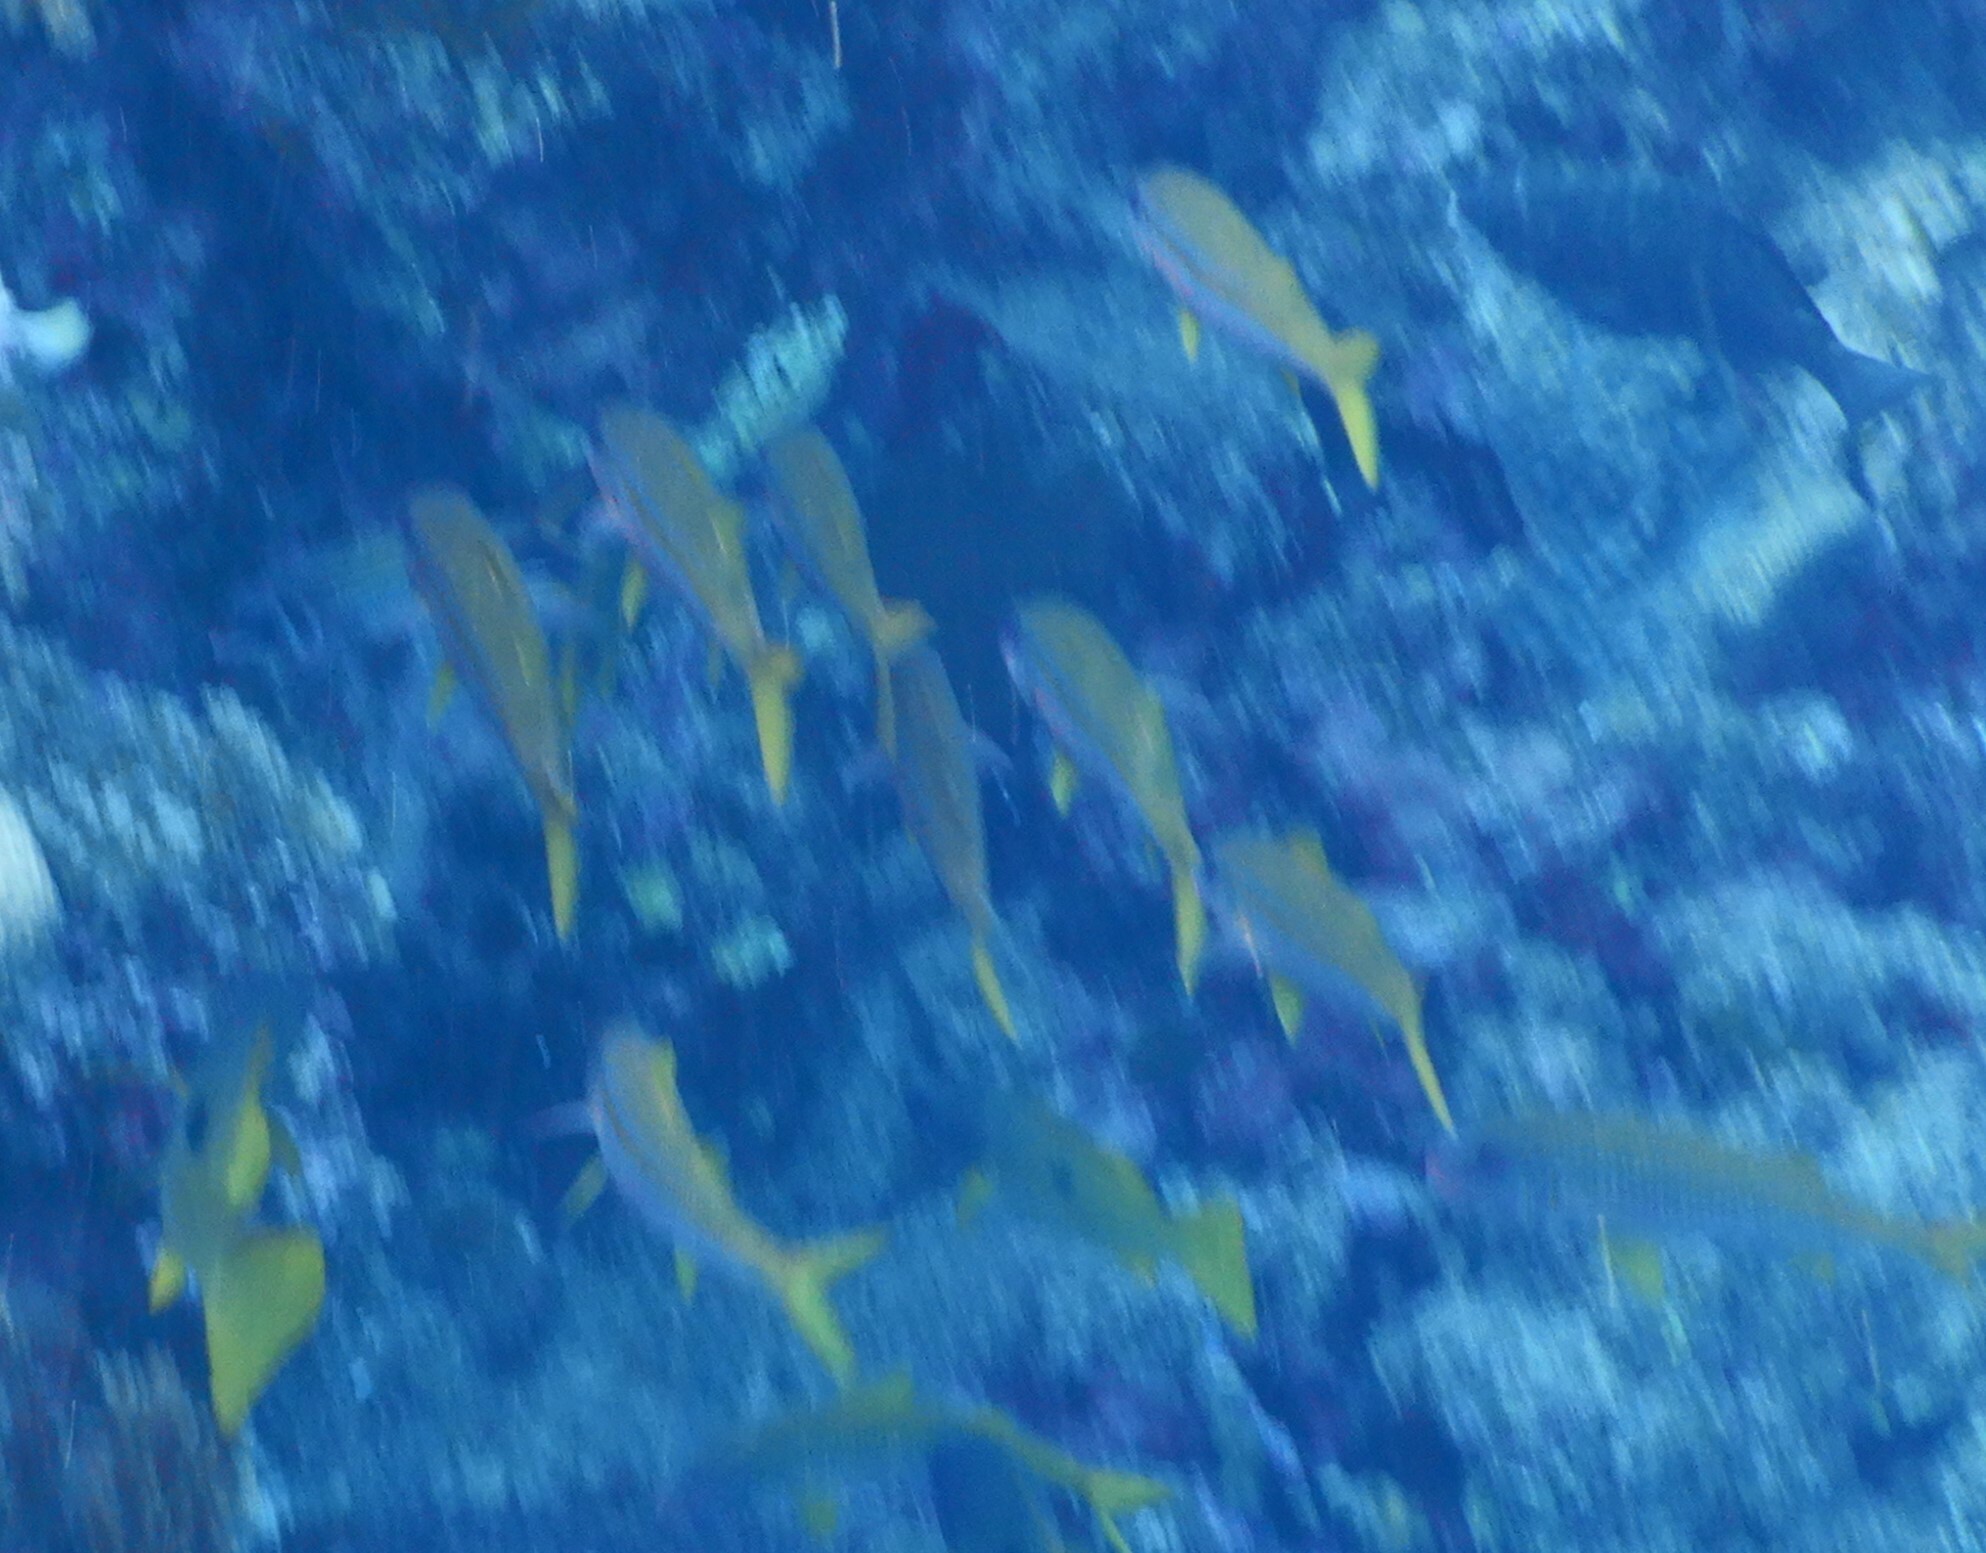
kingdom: Animalia
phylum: Chordata
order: Perciformes
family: Mullidae
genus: Mulloidichthys
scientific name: Mulloidichthys vanicolensis
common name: Yellowfin goatfish
